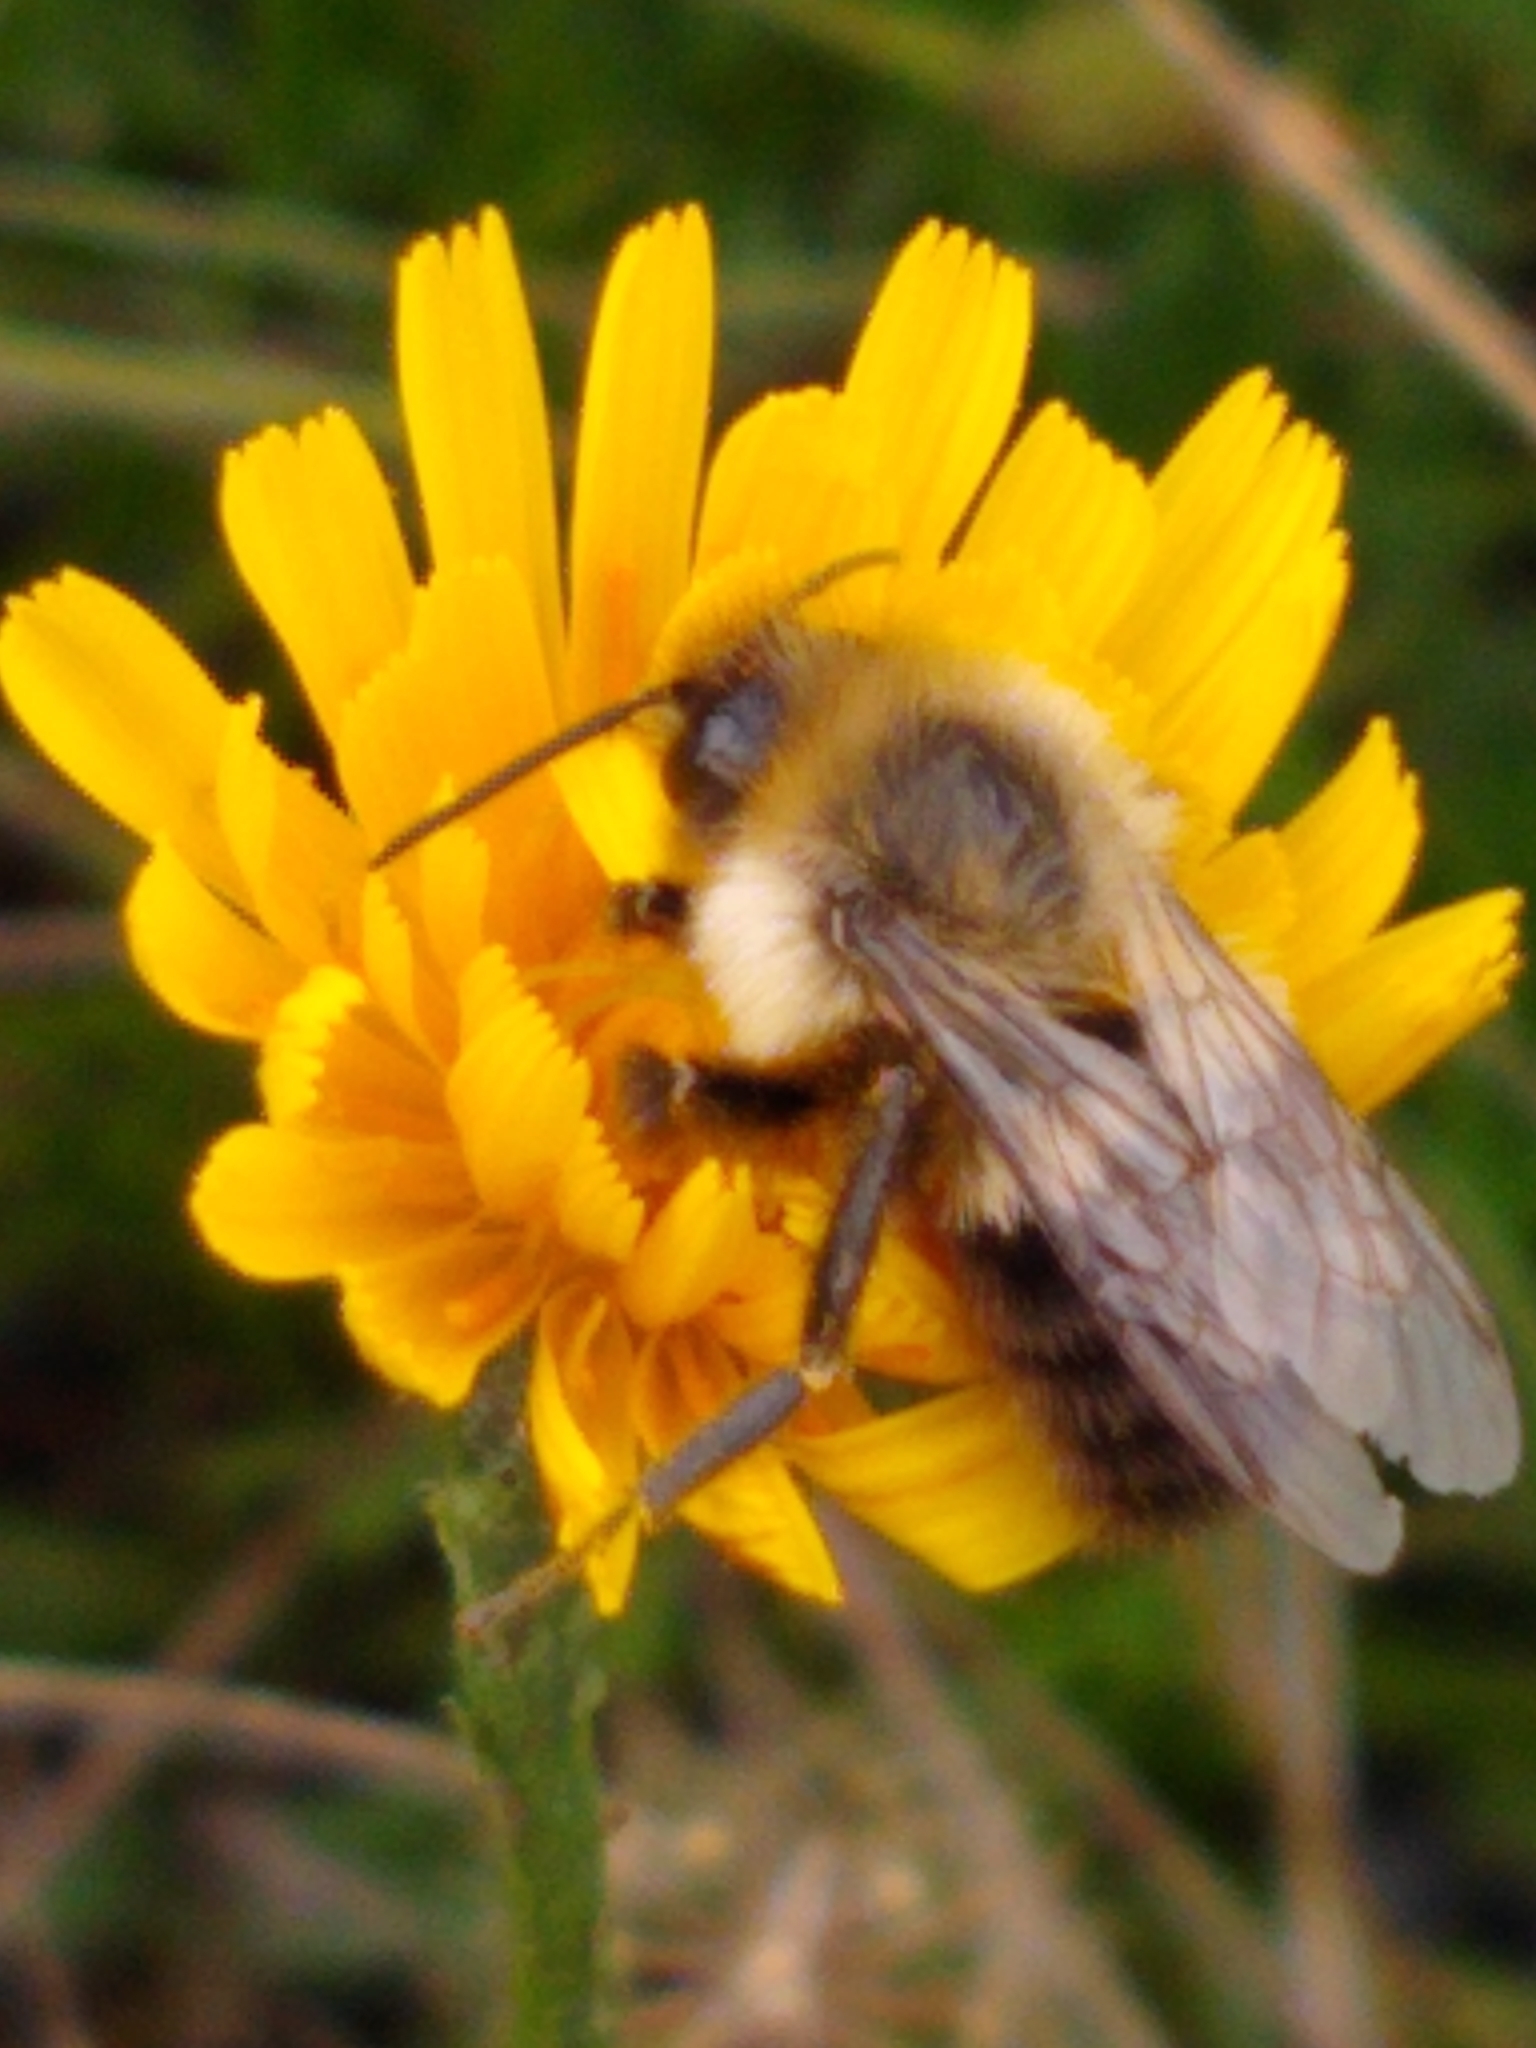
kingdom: Animalia
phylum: Arthropoda
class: Insecta
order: Hymenoptera
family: Apidae
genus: Bombus
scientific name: Bombus impatiens
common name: Common eastern bumble bee
